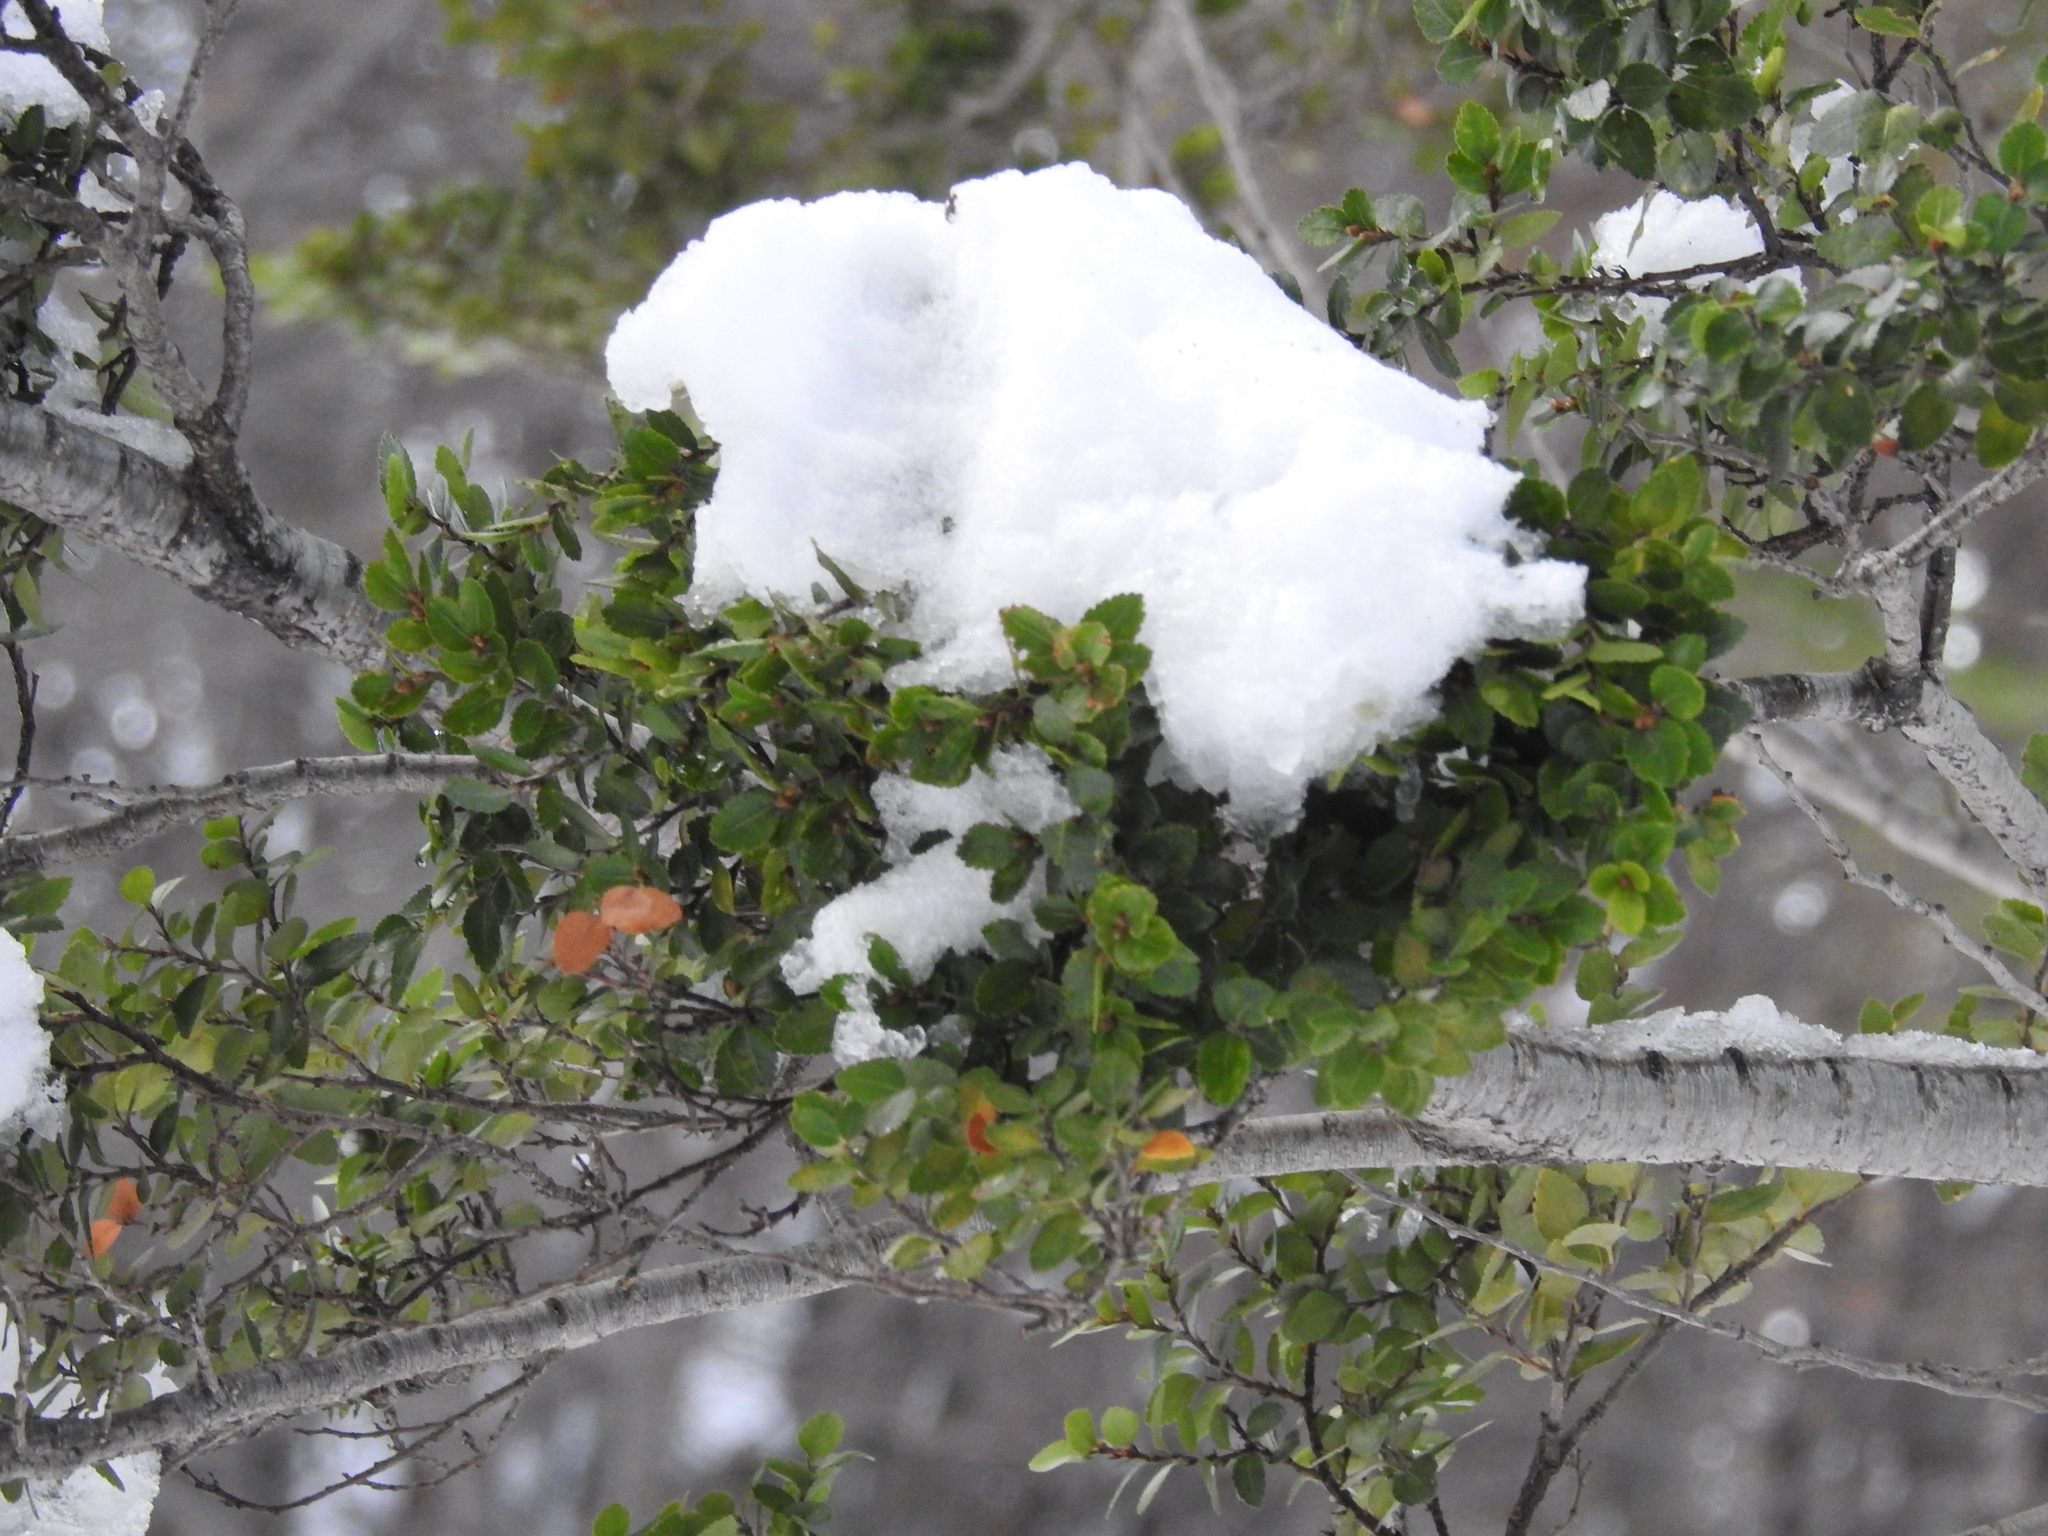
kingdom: Plantae
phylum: Tracheophyta
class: Magnoliopsida
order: Fagales
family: Nothofagaceae
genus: Nothofagus
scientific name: Nothofagus betuloides
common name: Magellan's beech
